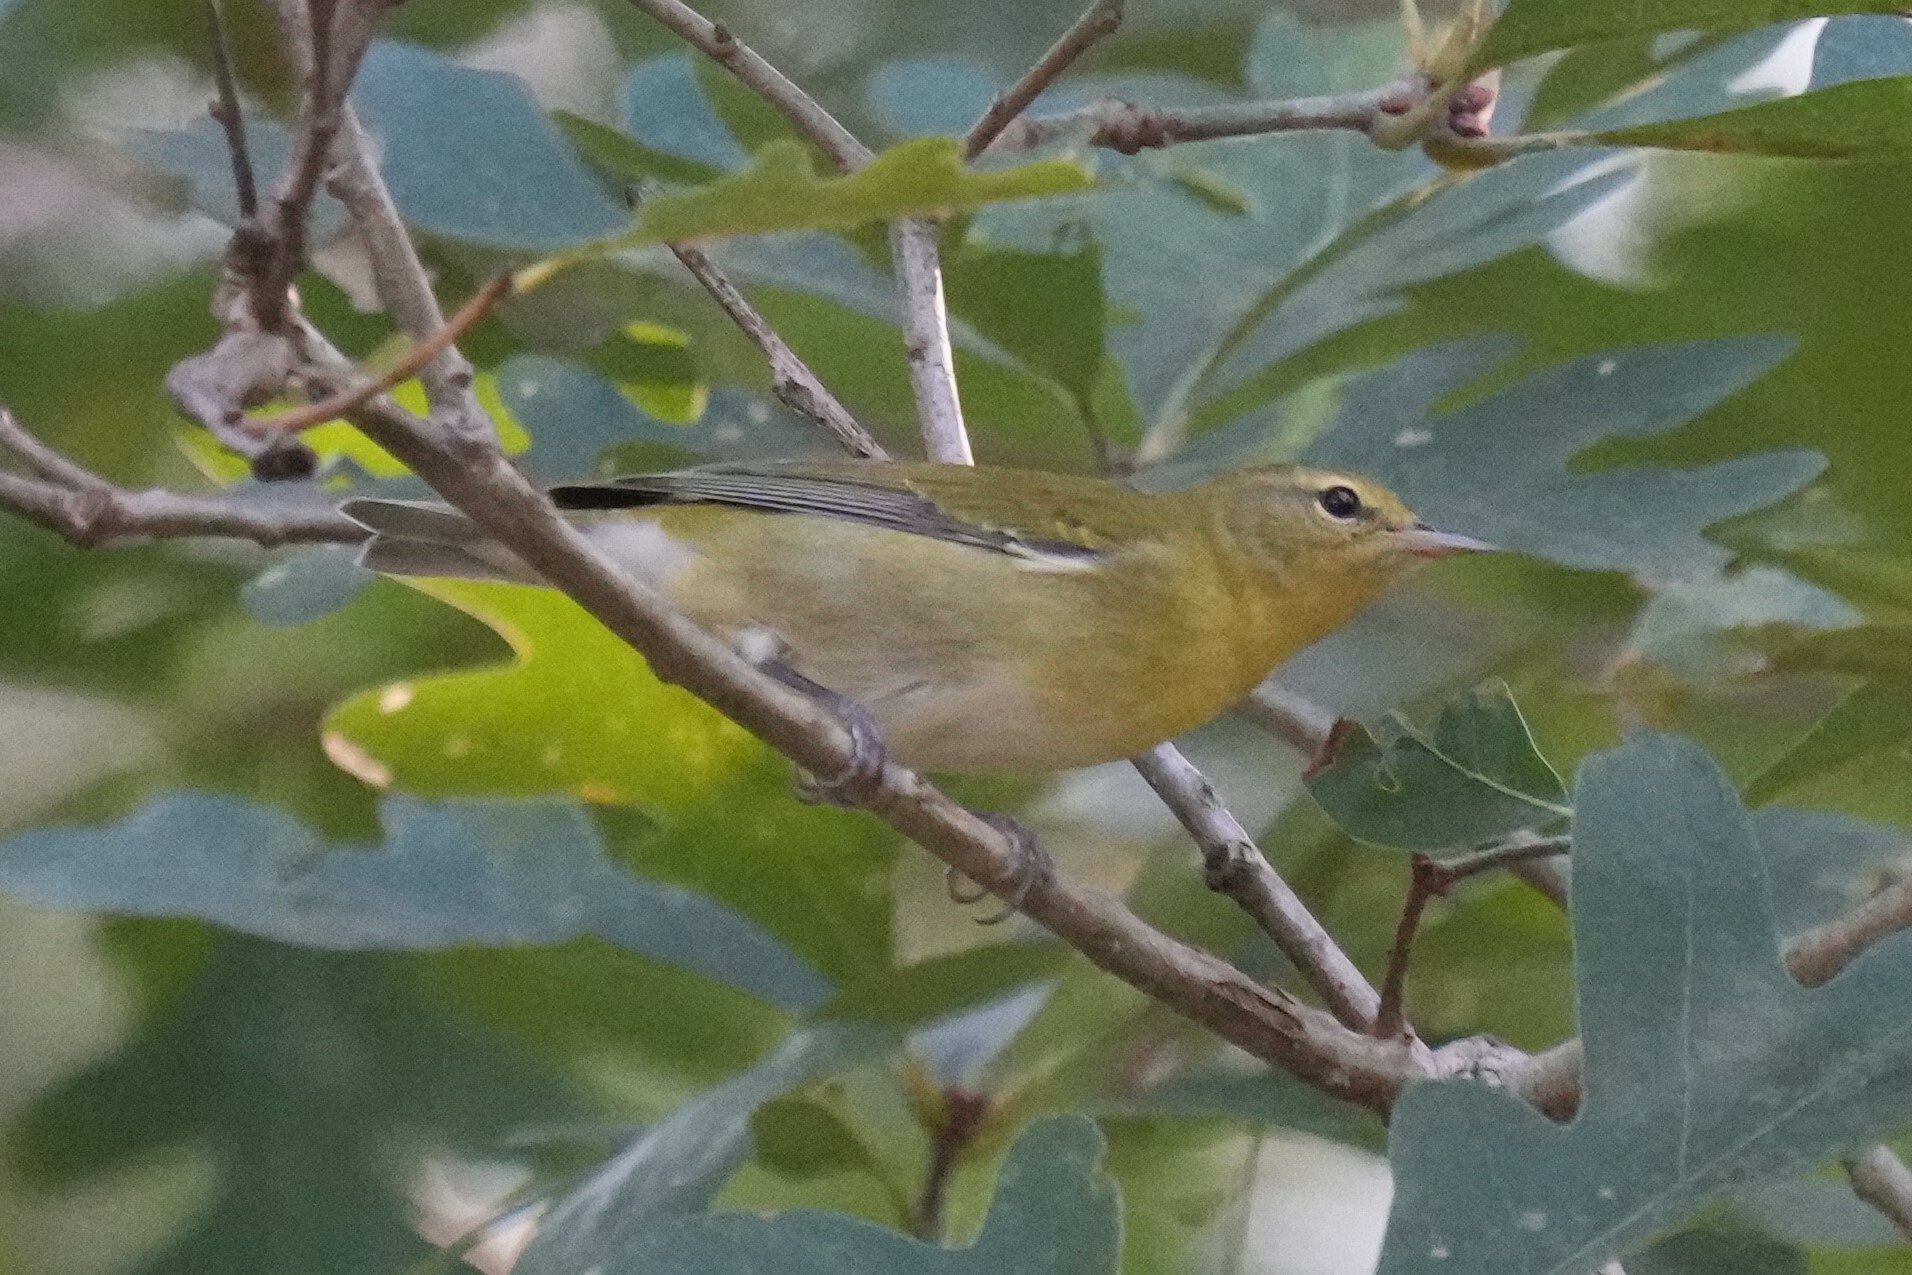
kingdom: Animalia
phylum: Chordata
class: Aves
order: Passeriformes
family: Parulidae
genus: Leiothlypis
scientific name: Leiothlypis peregrina
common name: Tennessee warbler
